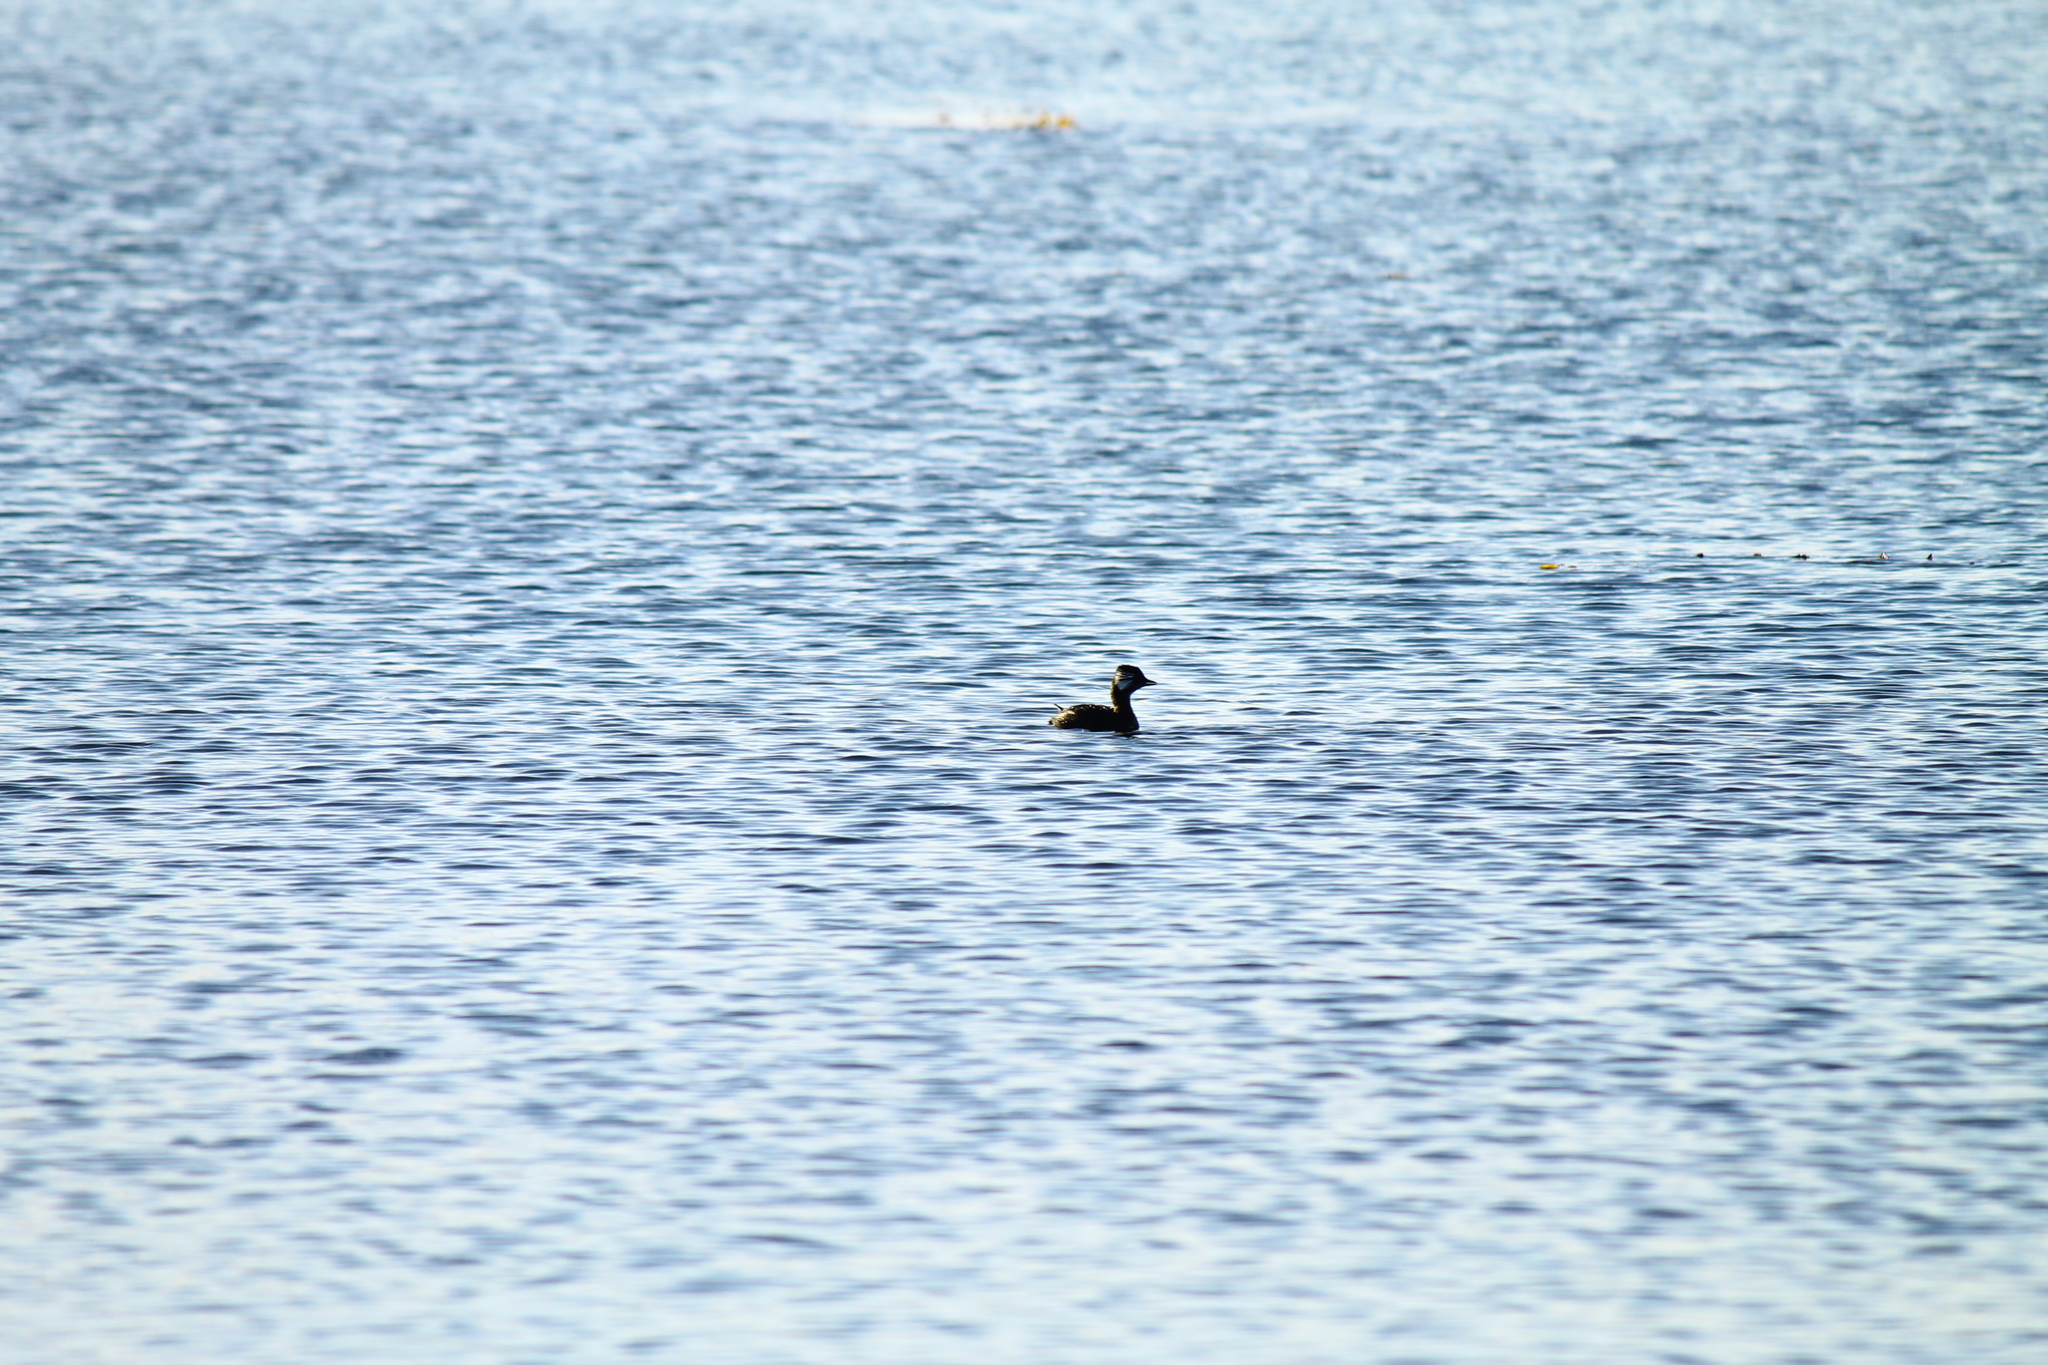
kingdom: Animalia
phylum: Chordata
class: Aves
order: Podicipediformes
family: Podicipedidae
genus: Rollandia
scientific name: Rollandia rolland
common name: White-tufted grebe
